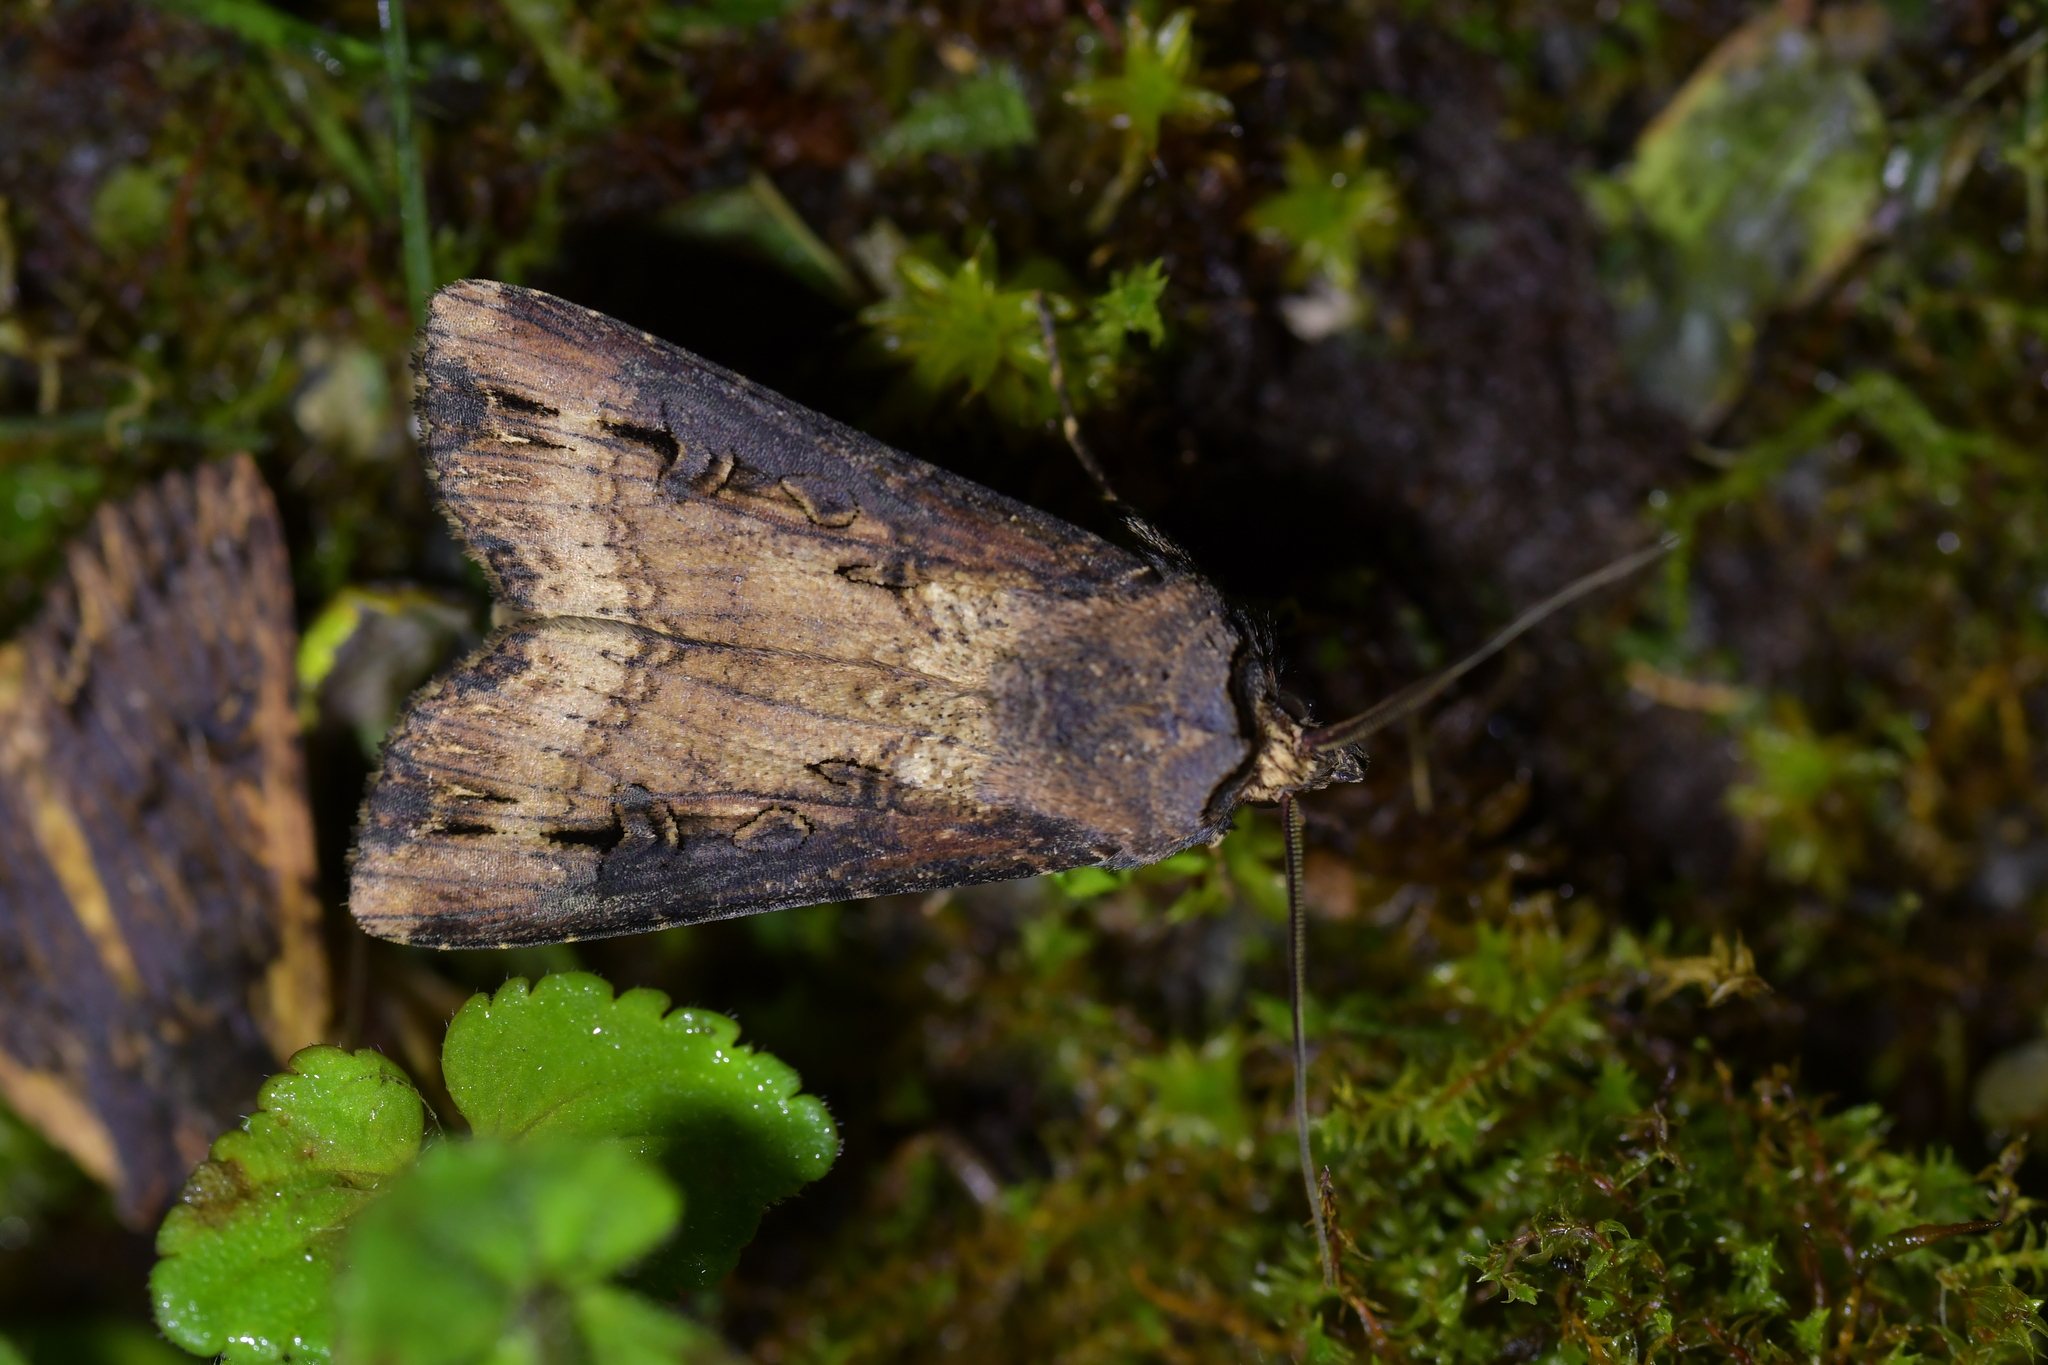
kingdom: Animalia
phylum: Arthropoda
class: Insecta
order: Lepidoptera
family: Noctuidae
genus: Agrotis
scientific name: Agrotis ipsilon
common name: Dark sword-grass
